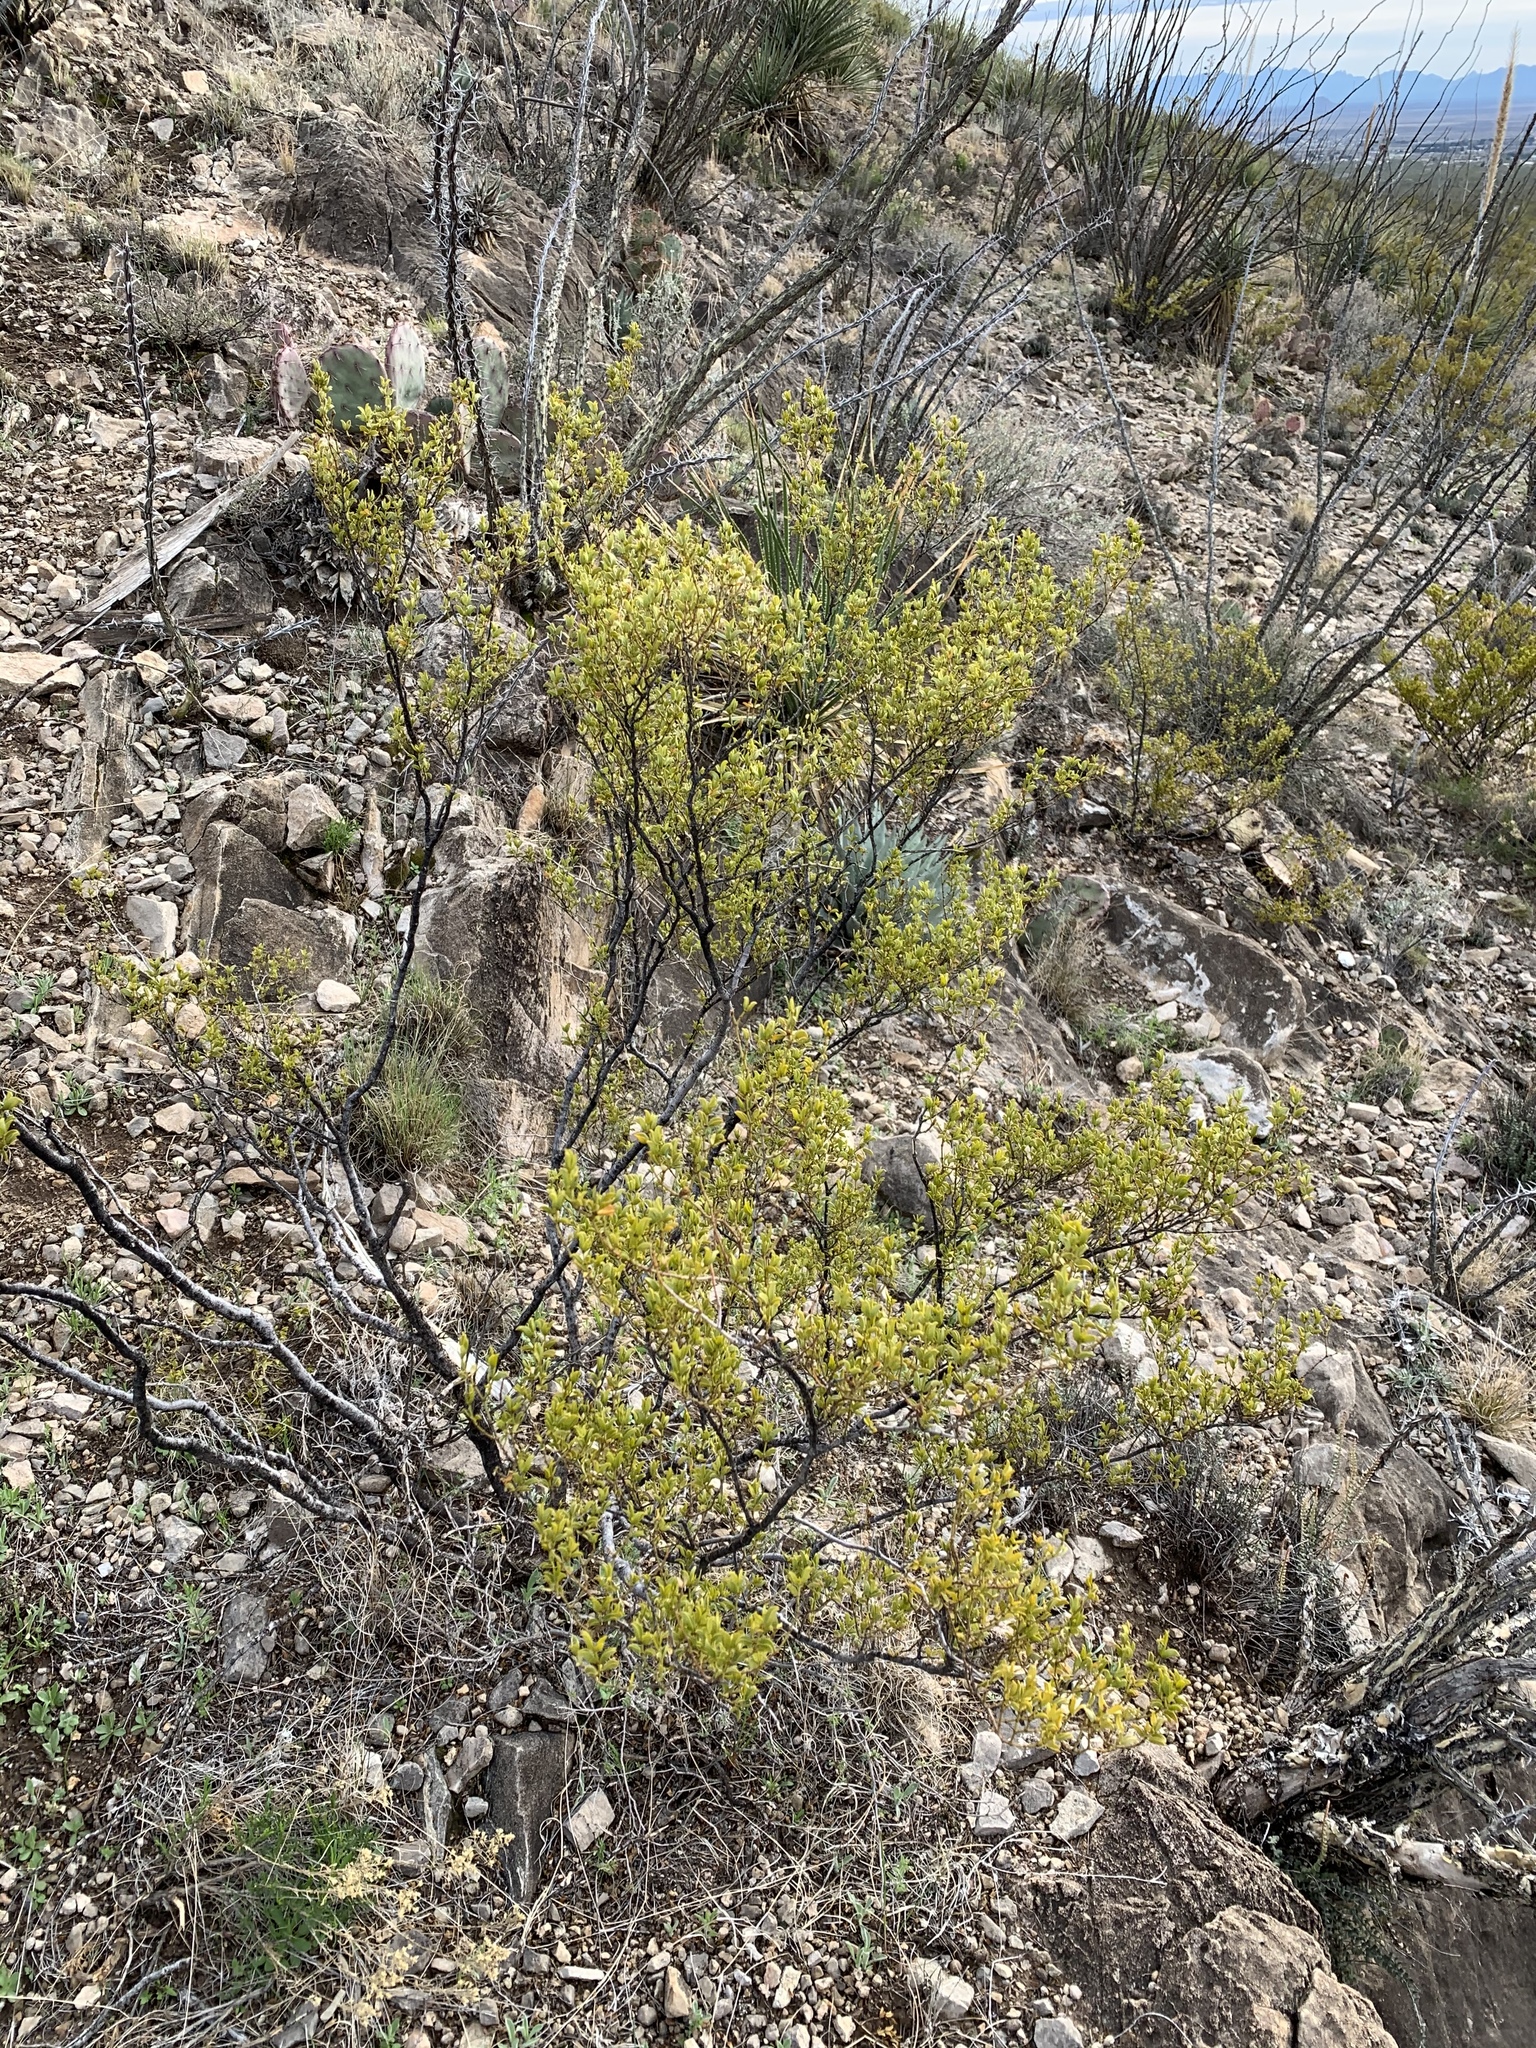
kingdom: Plantae
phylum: Tracheophyta
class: Magnoliopsida
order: Zygophyllales
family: Zygophyllaceae
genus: Larrea
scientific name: Larrea tridentata
